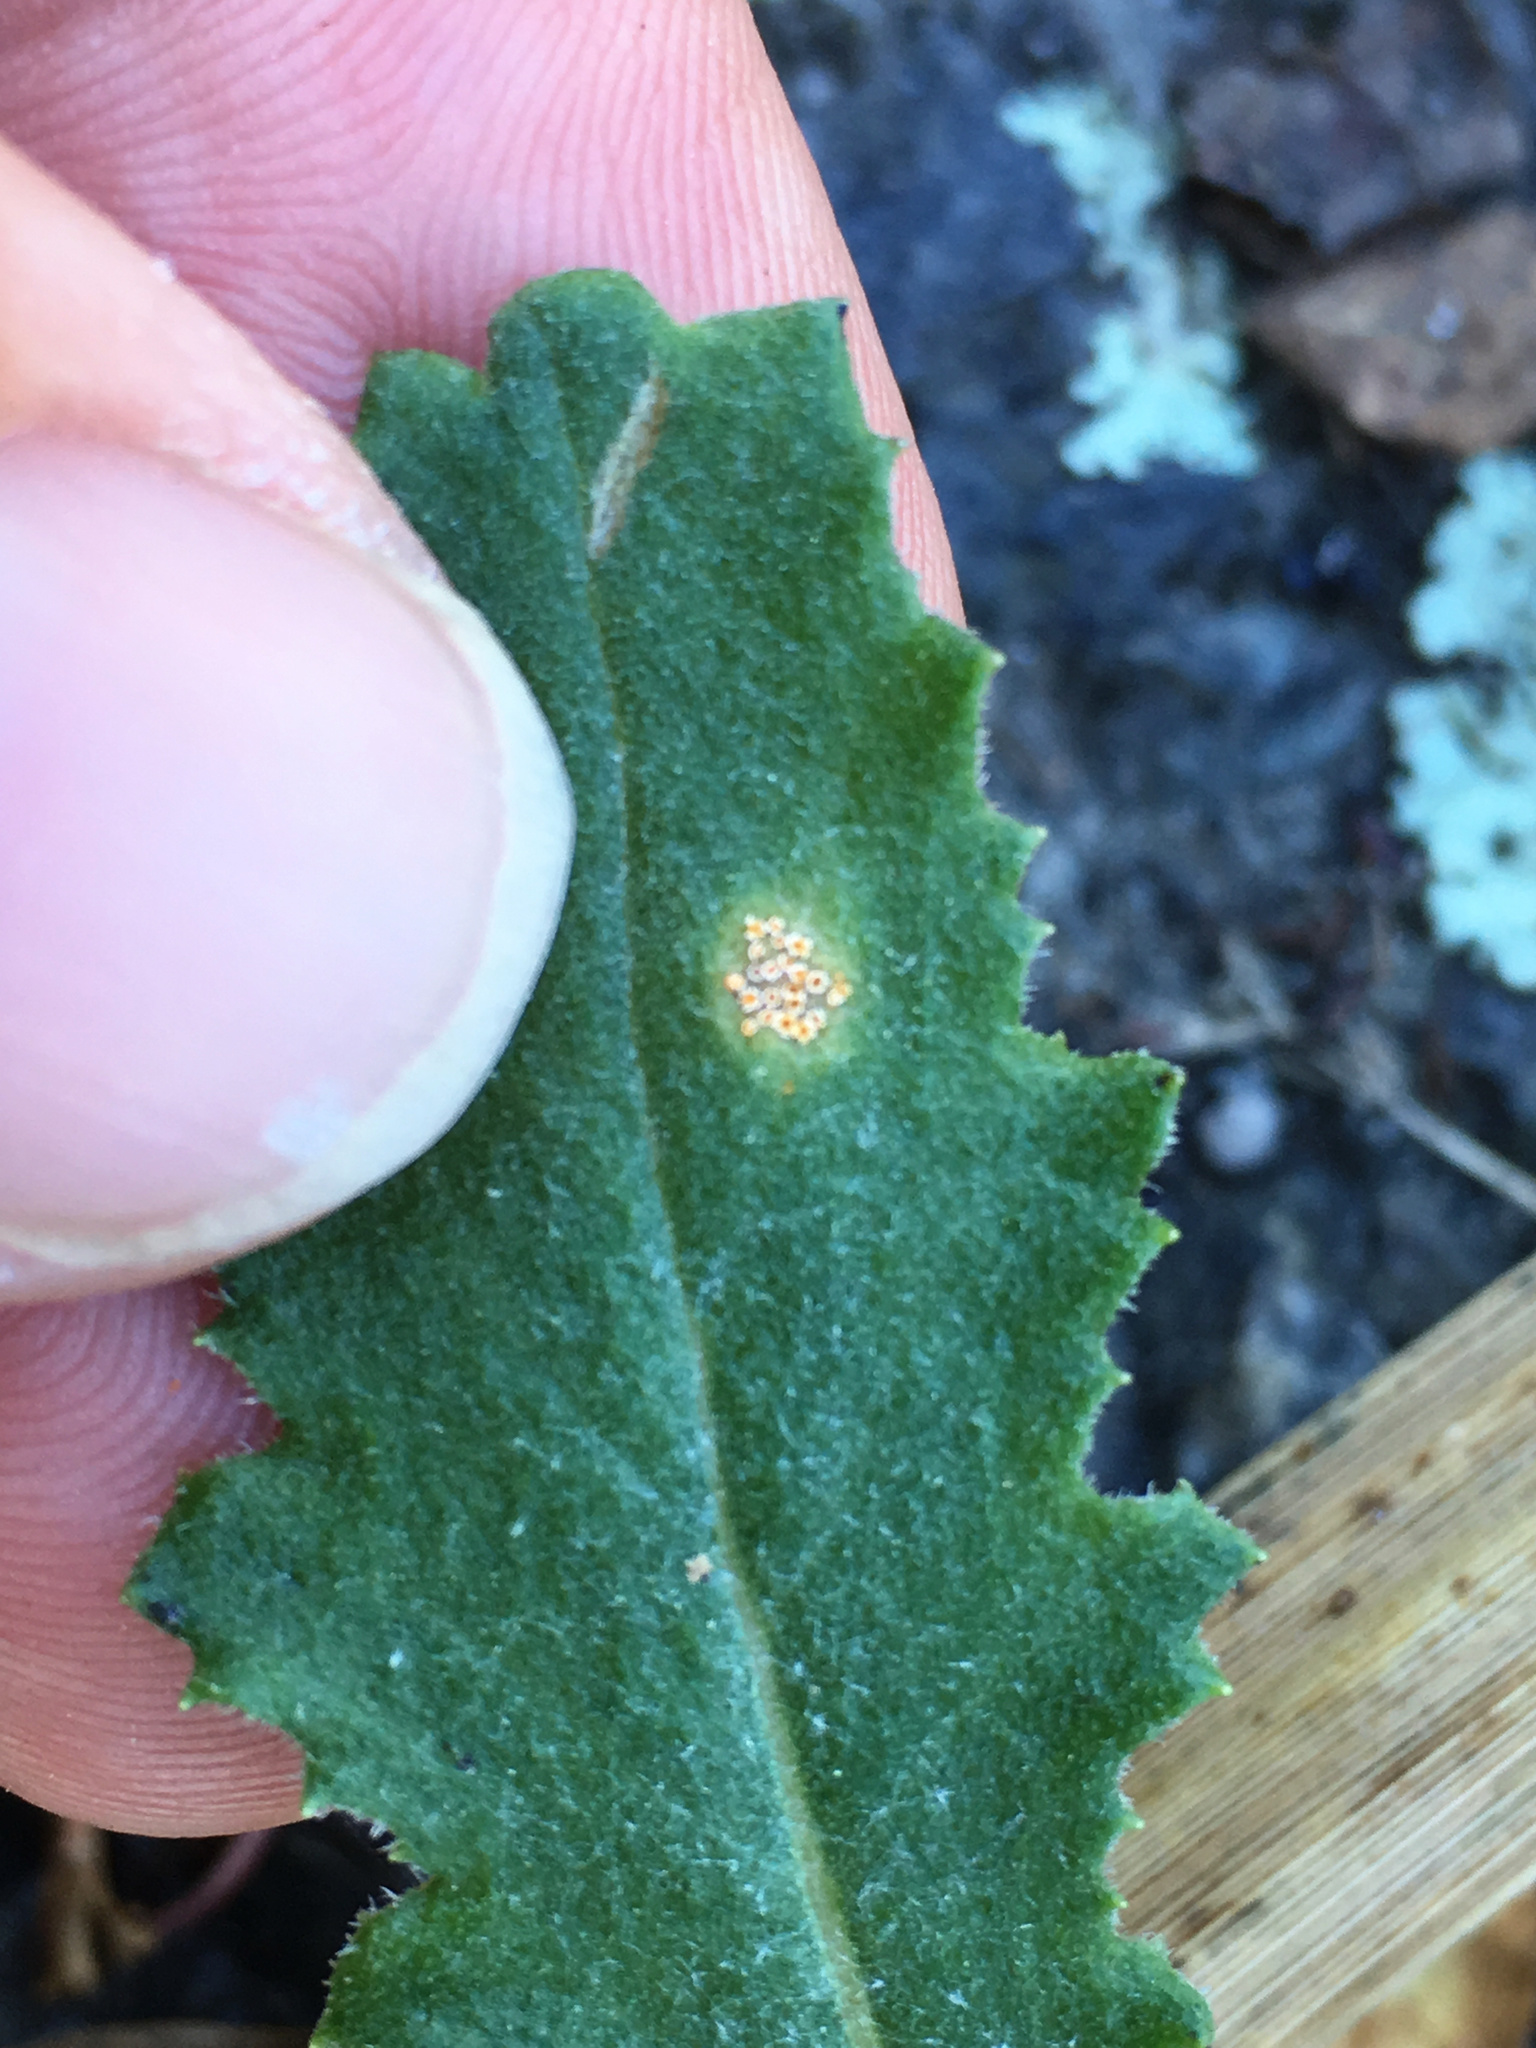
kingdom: Fungi
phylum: Basidiomycota
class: Pucciniomycetes
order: Pucciniales
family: Pucciniaceae
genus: Puccinia
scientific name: Puccinia lagenophorae
